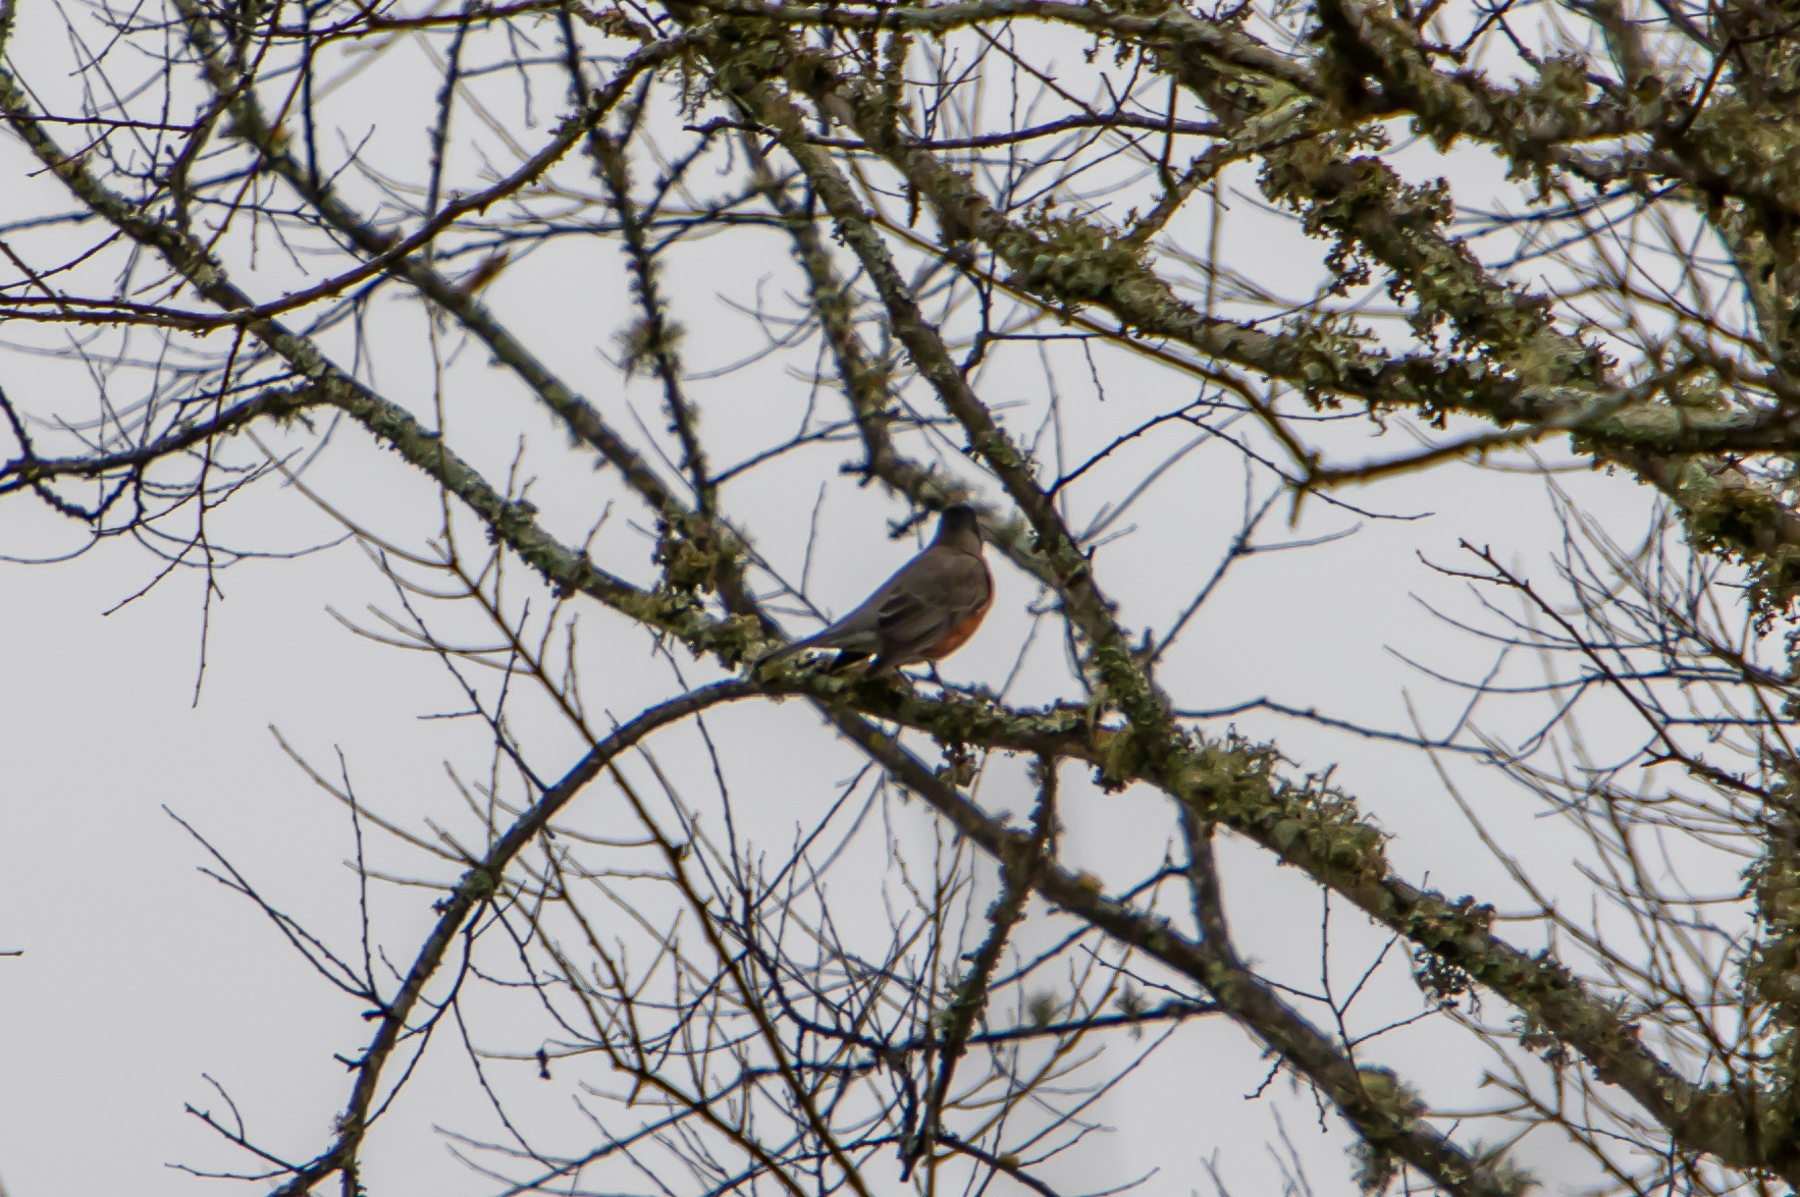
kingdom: Animalia
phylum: Chordata
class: Aves
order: Passeriformes
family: Turdidae
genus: Turdus
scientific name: Turdus migratorius
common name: American robin
